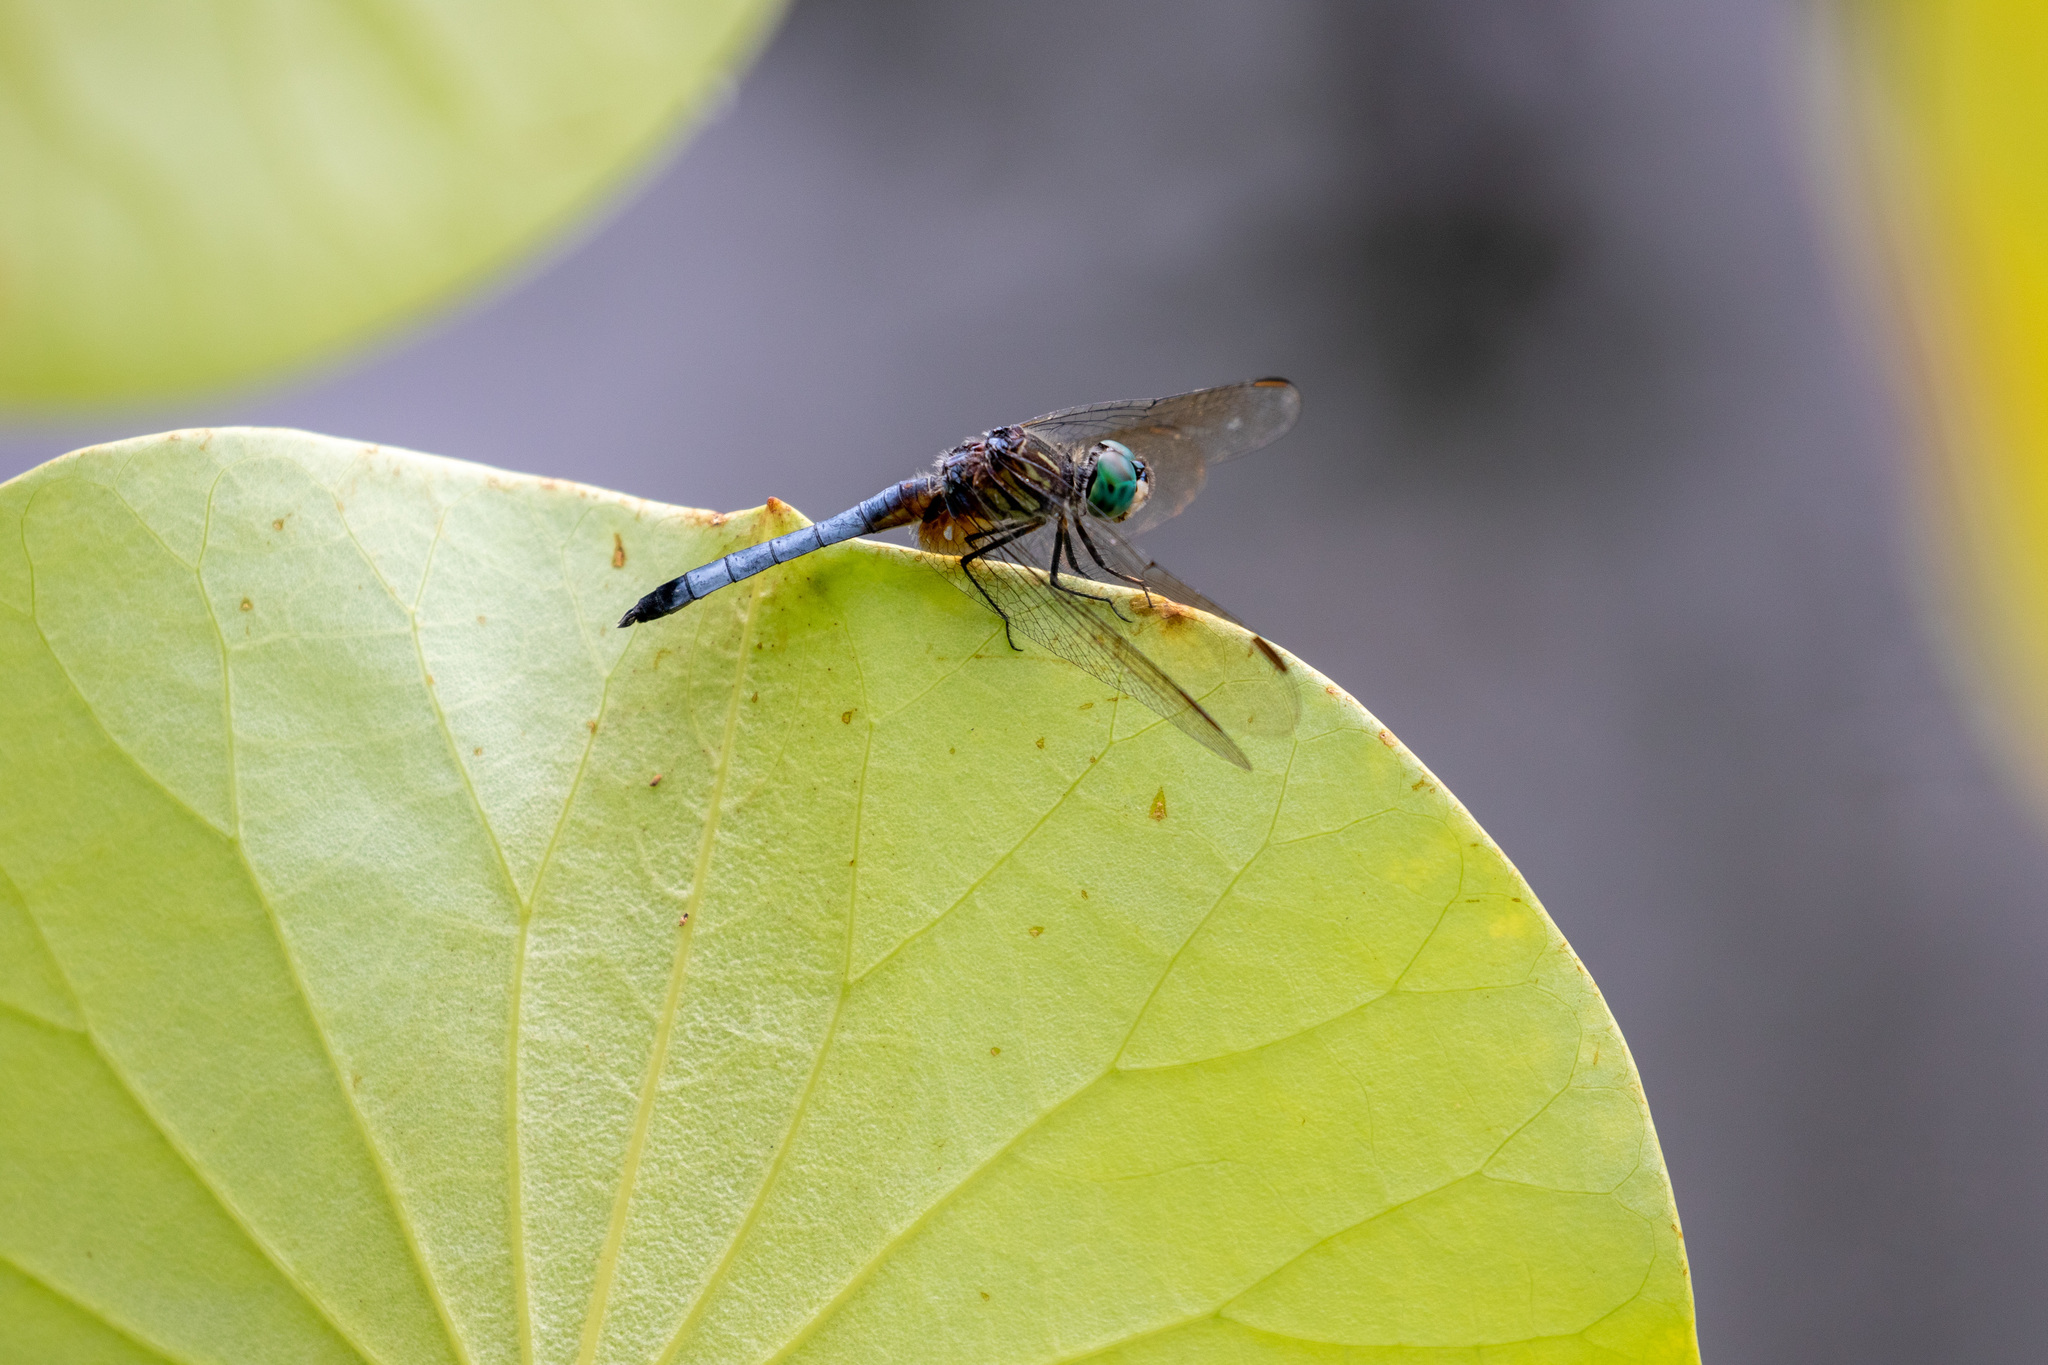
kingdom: Animalia
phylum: Arthropoda
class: Insecta
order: Odonata
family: Libellulidae
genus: Pachydiplax
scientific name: Pachydiplax longipennis
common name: Blue dasher
